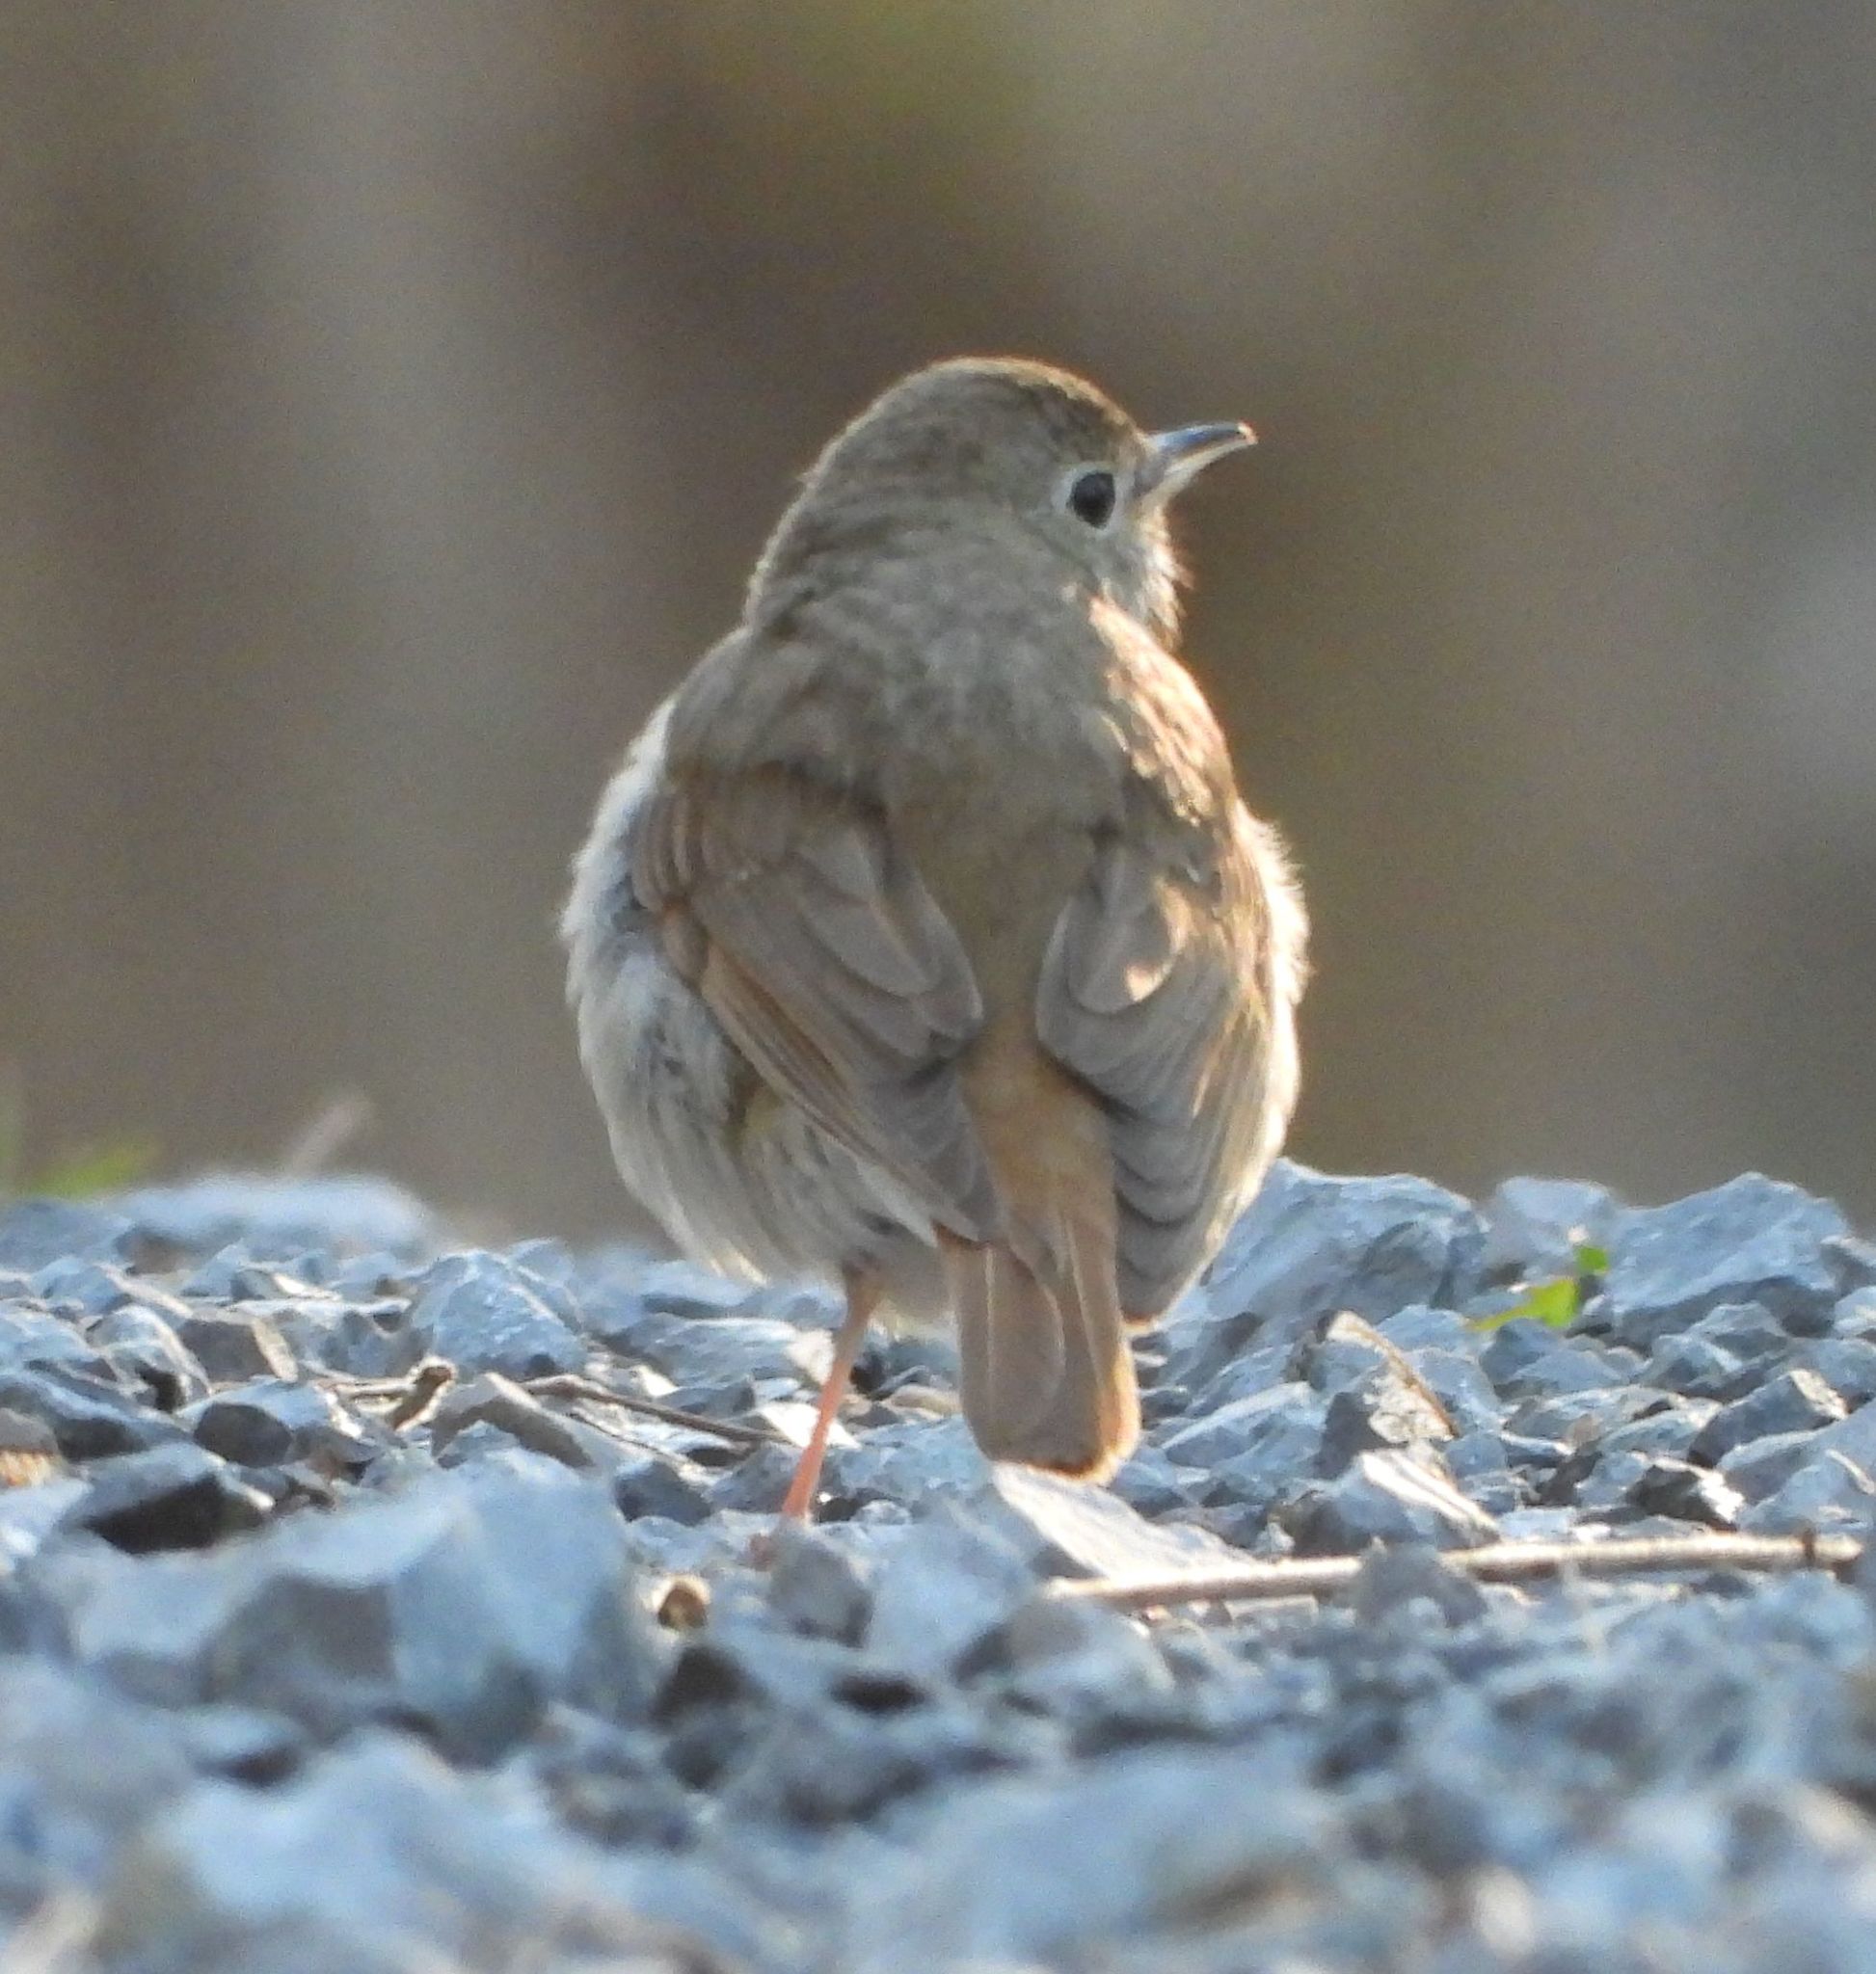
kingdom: Animalia
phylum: Chordata
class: Aves
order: Passeriformes
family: Turdidae
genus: Catharus
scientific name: Catharus guttatus
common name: Hermit thrush
